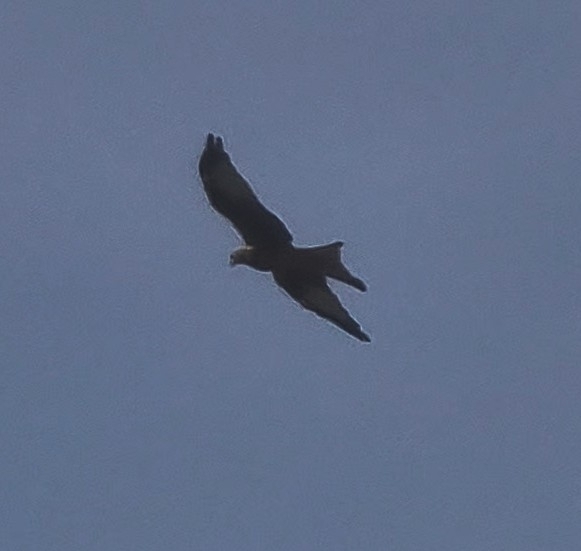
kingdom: Animalia
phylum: Chordata
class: Aves
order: Accipitriformes
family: Accipitridae
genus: Milvus
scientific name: Milvus milvus
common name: Red kite
